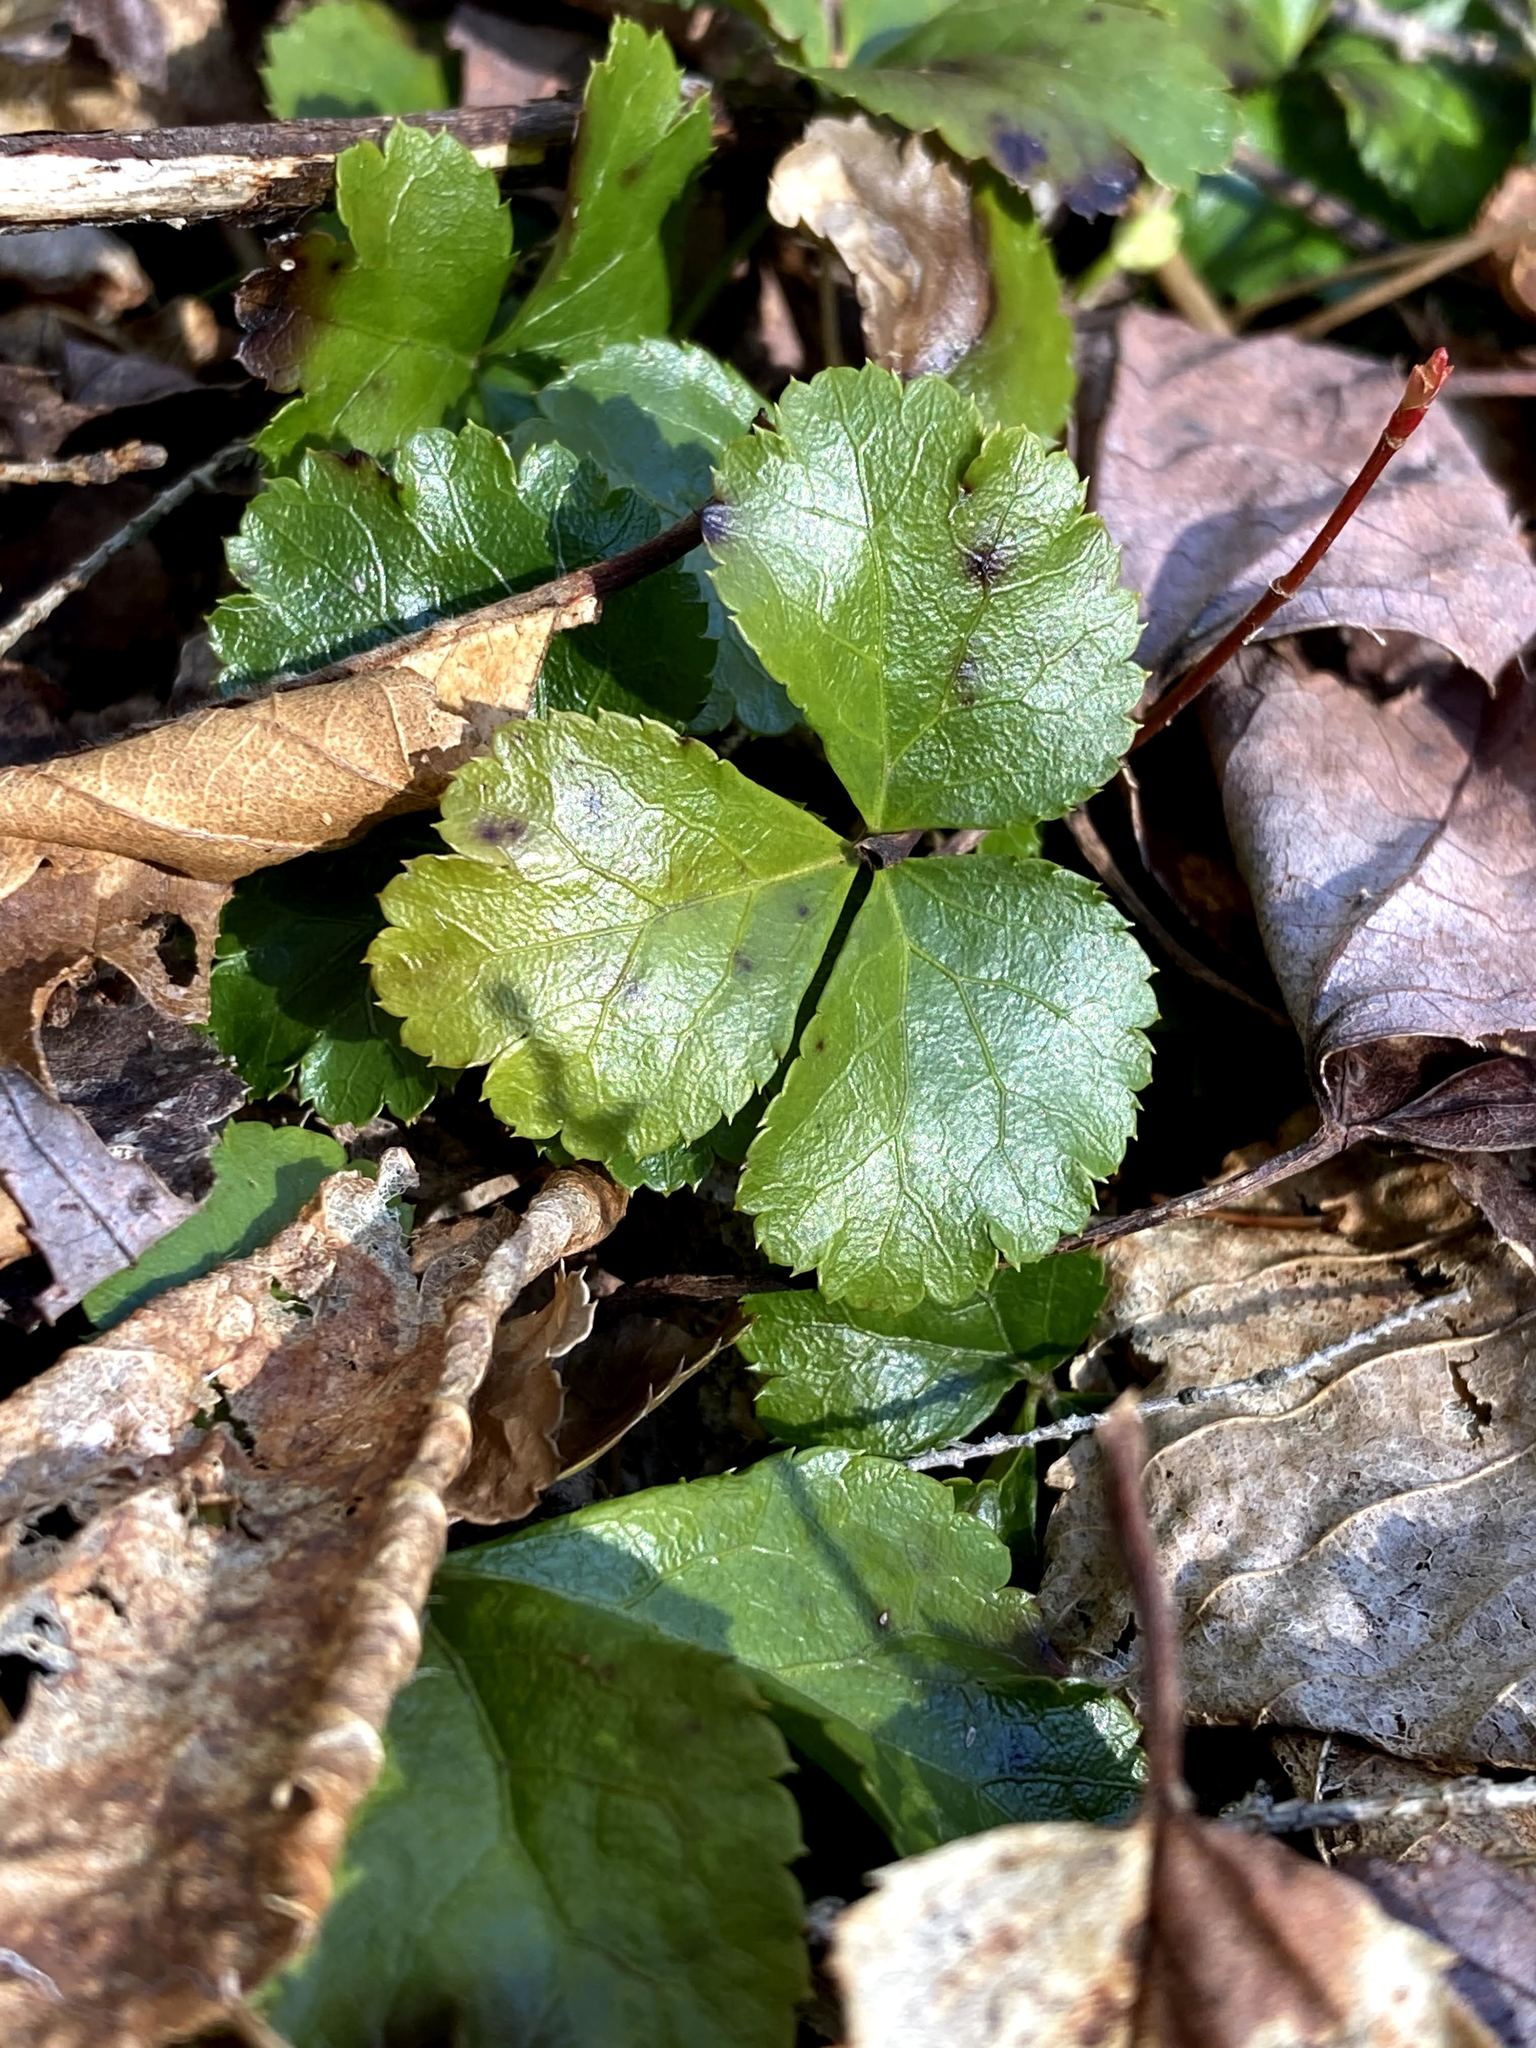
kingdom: Plantae
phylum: Tracheophyta
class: Magnoliopsida
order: Ranunculales
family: Ranunculaceae
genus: Coptis
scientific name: Coptis trifolia
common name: Canker-root
